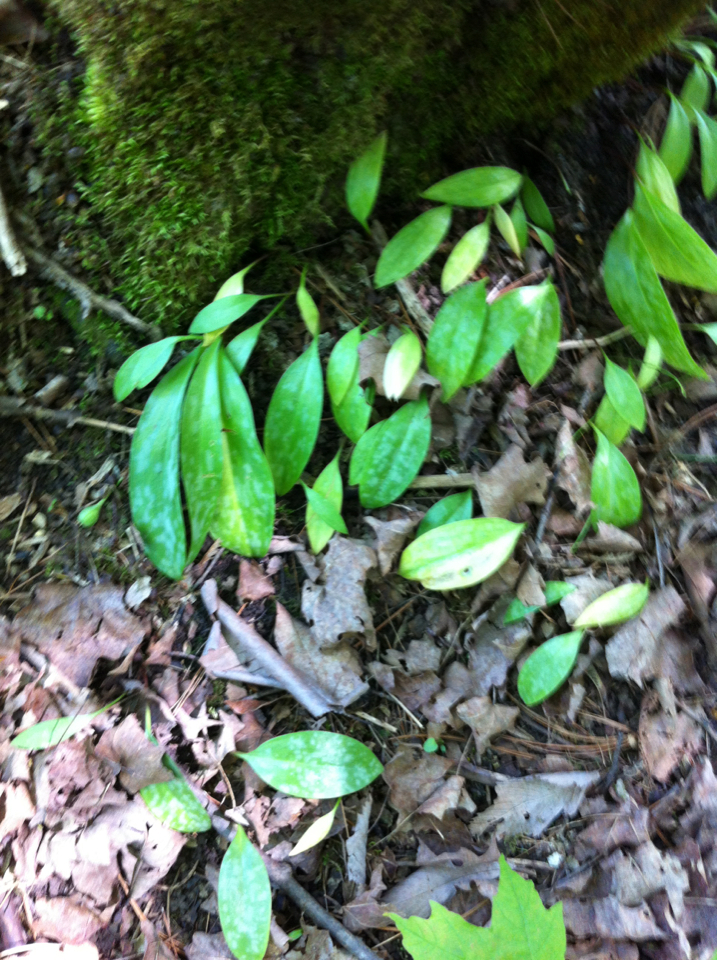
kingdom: Plantae
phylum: Tracheophyta
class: Liliopsida
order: Liliales
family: Liliaceae
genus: Erythronium
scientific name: Erythronium americanum
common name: Yellow adder's-tongue
